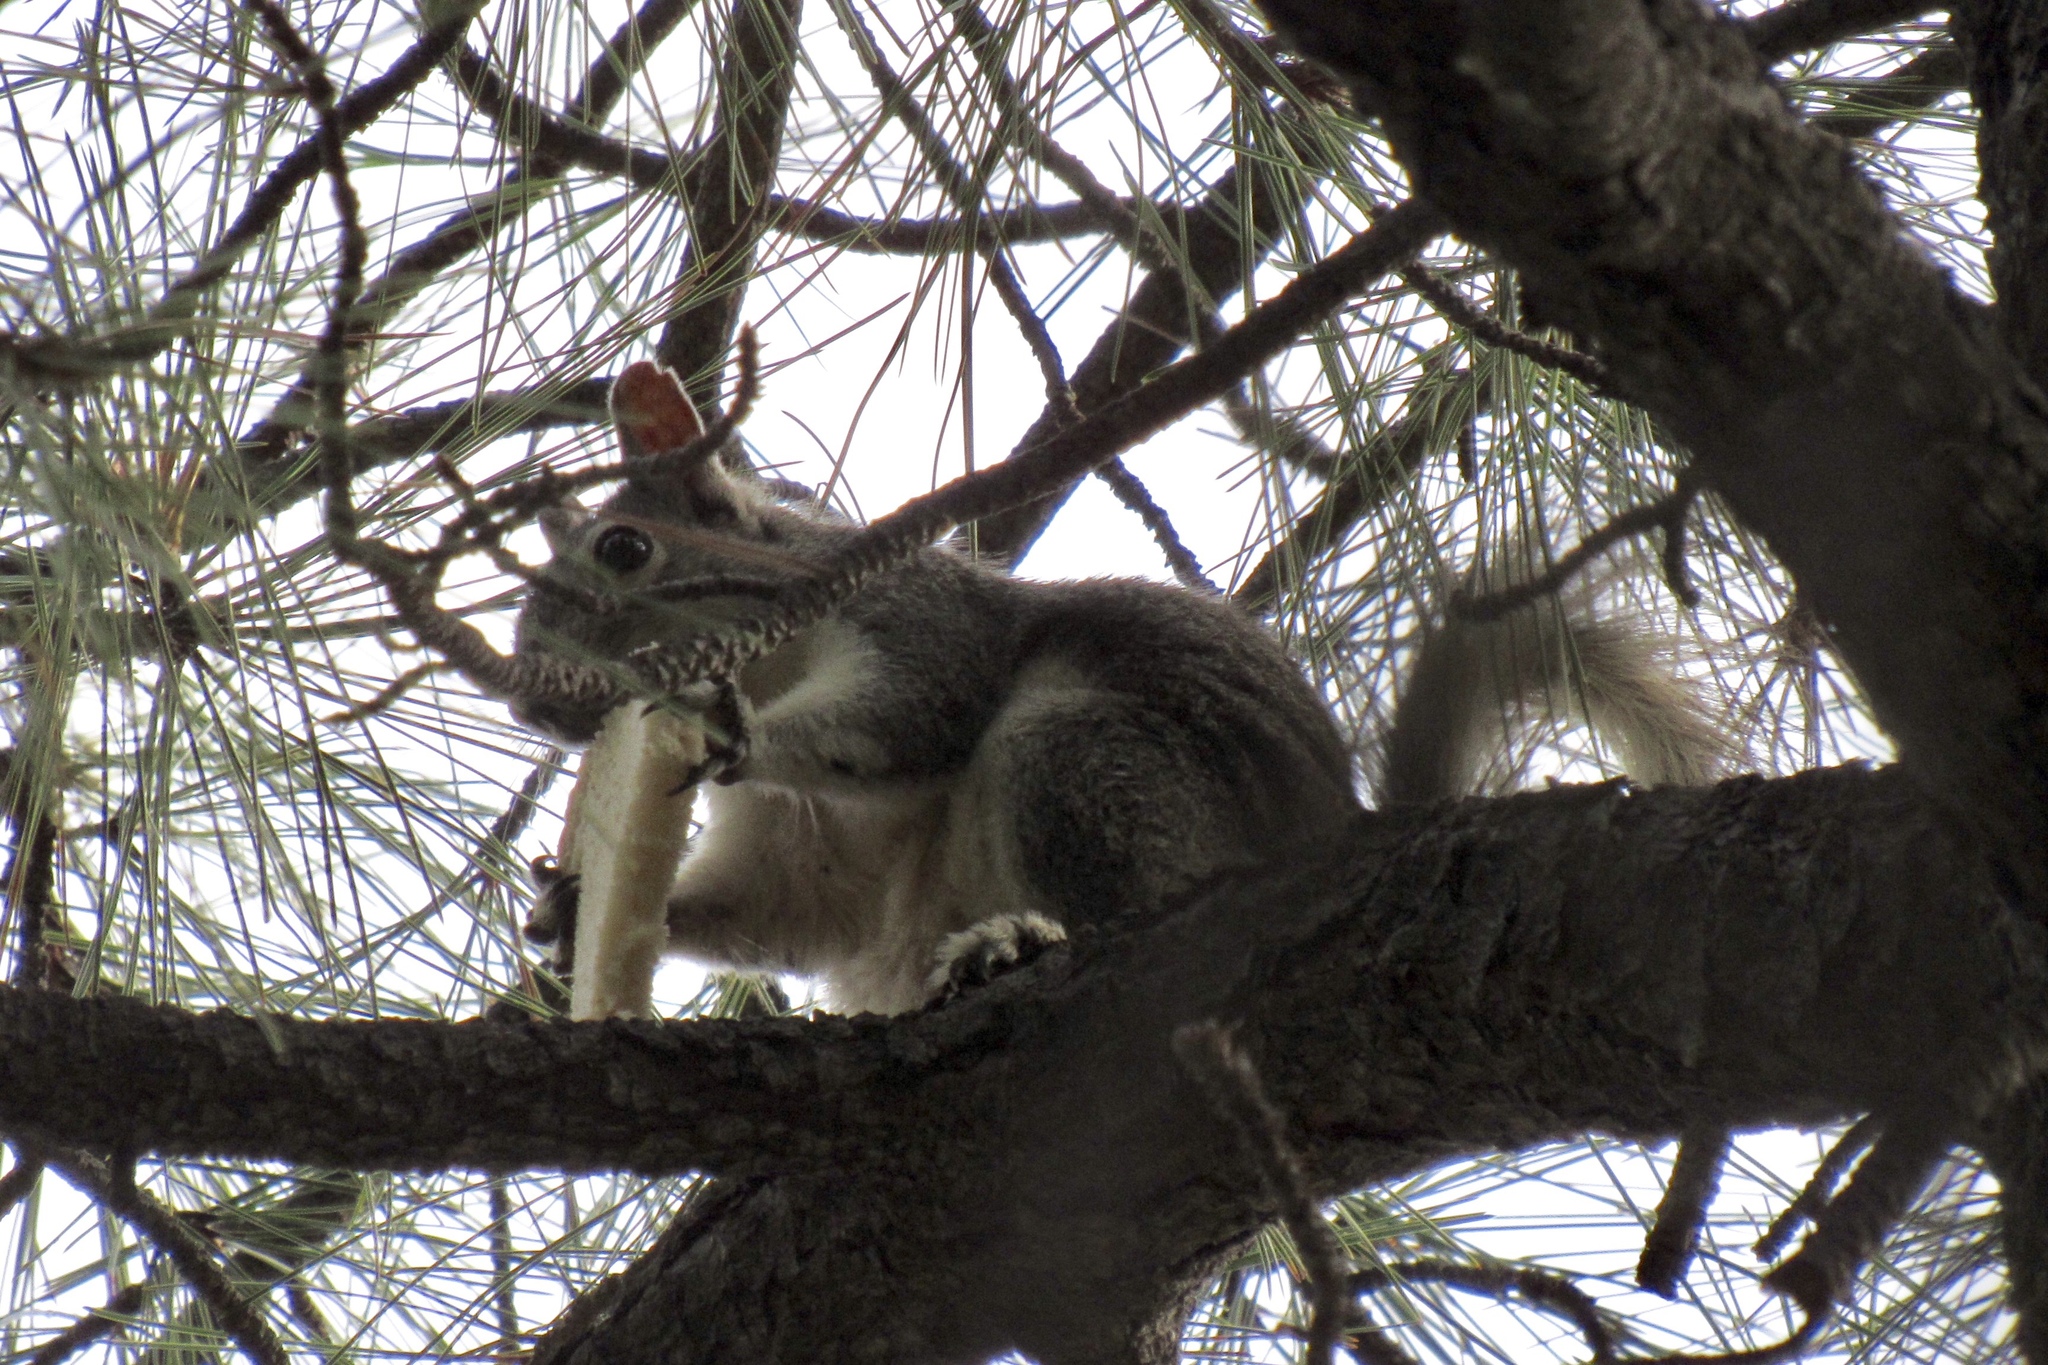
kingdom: Animalia
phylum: Chordata
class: Mammalia
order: Rodentia
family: Sciuridae
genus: Sciurus
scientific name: Sciurus aberti
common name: Abert's squirrel
